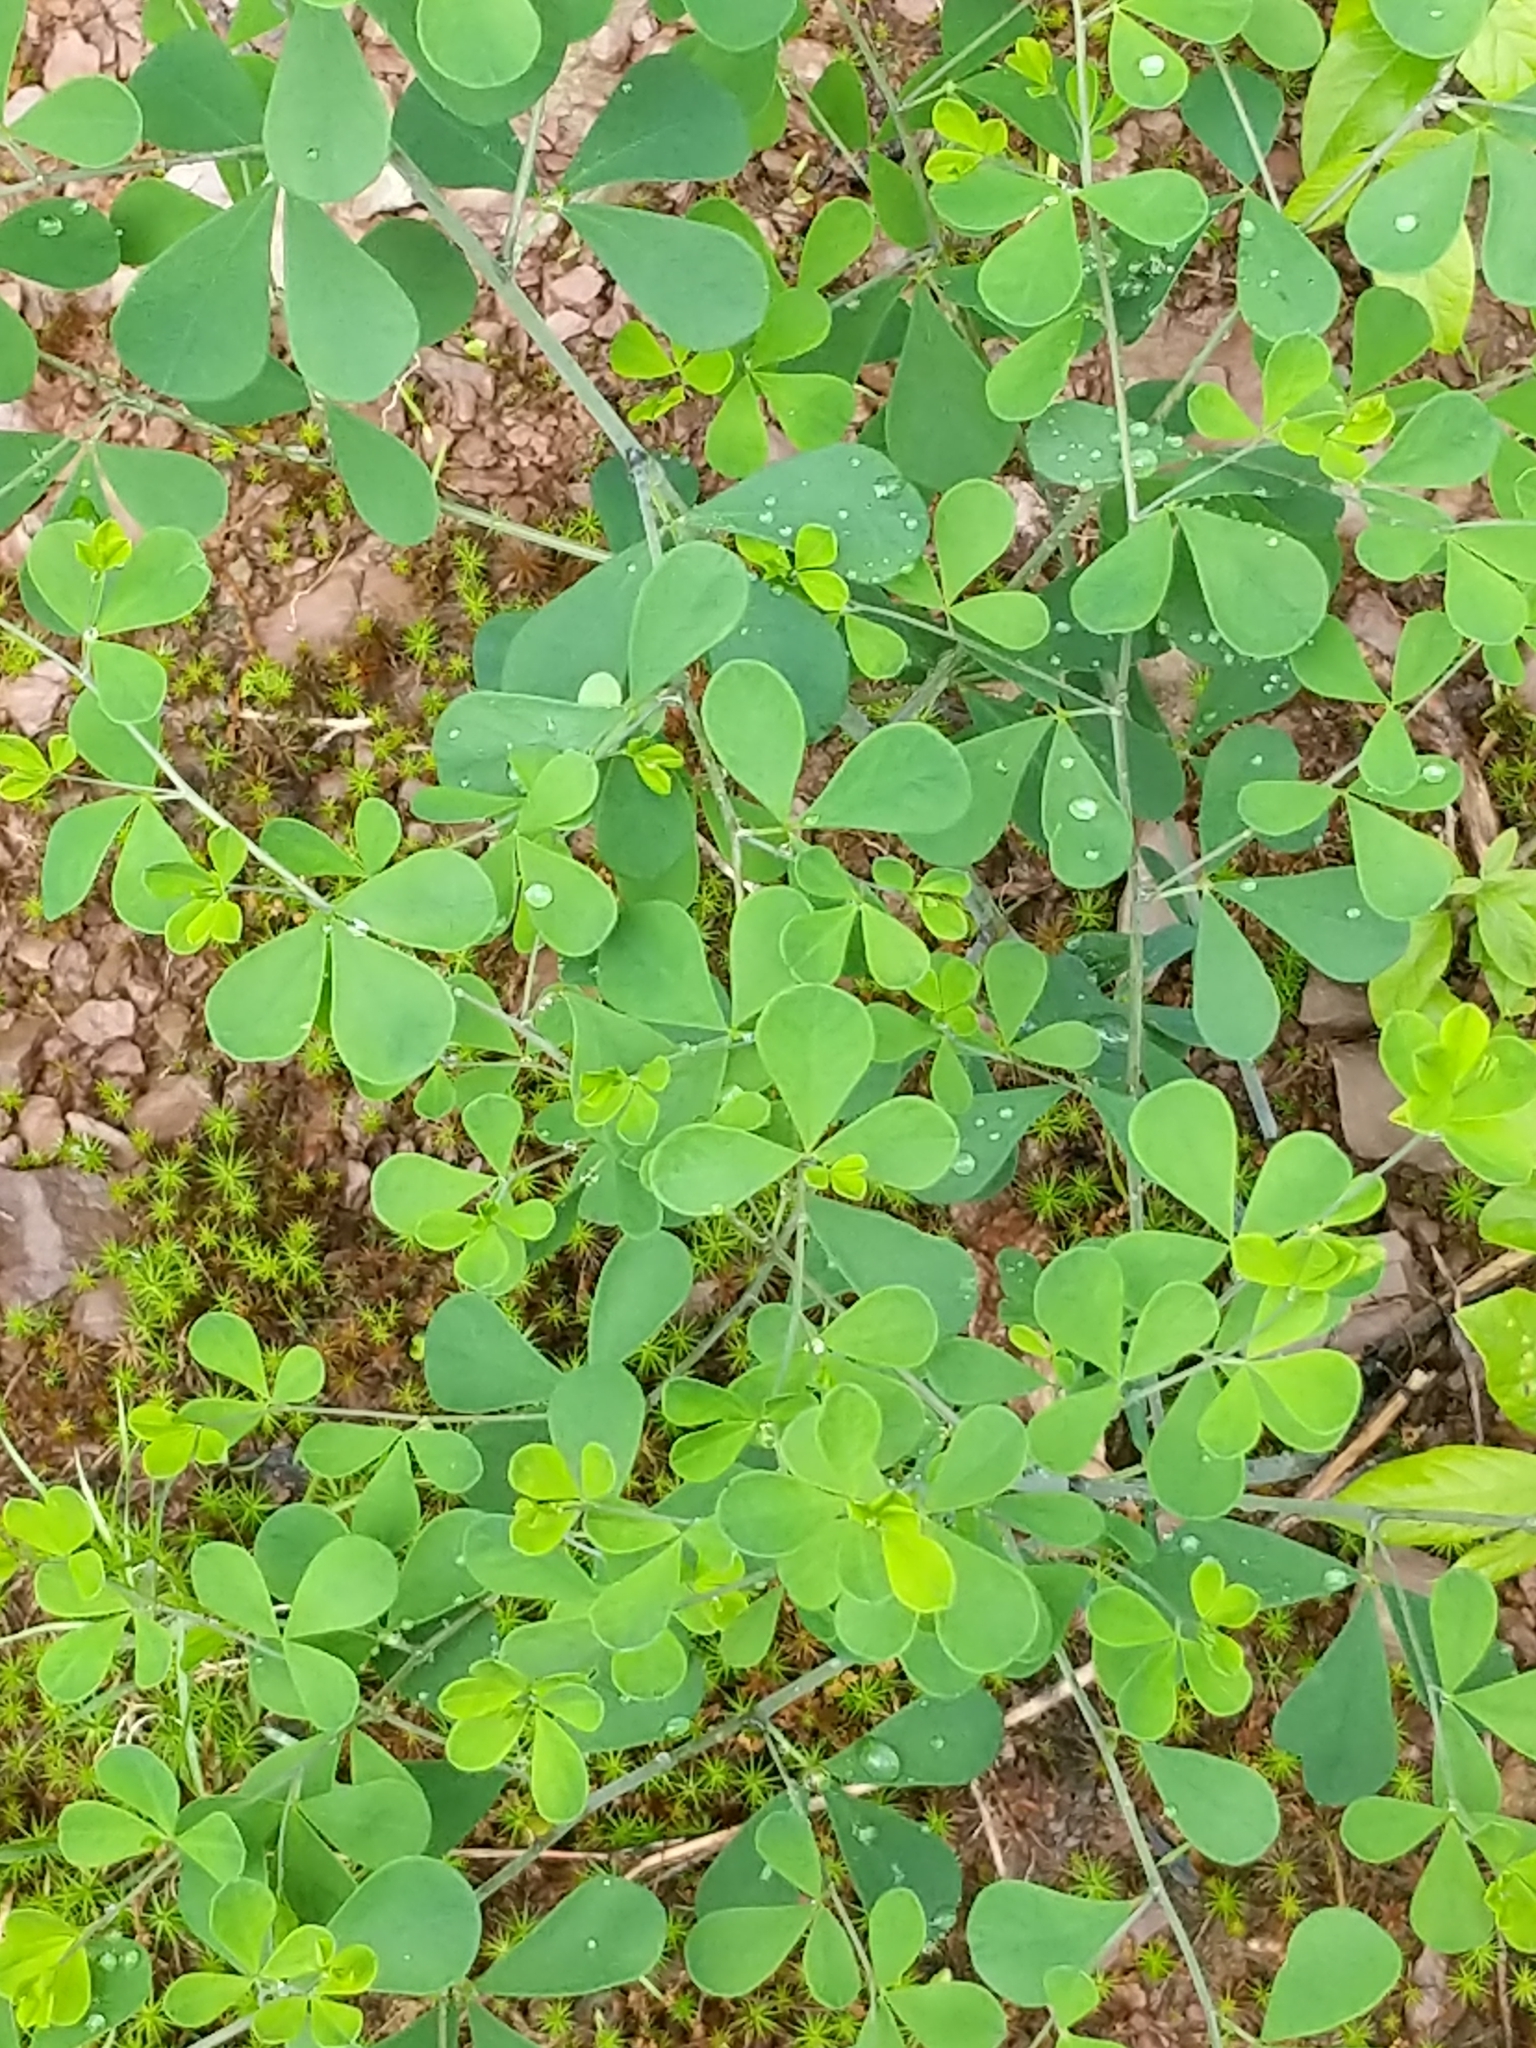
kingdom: Plantae
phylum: Tracheophyta
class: Magnoliopsida
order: Fabales
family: Fabaceae
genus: Baptisia
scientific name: Baptisia tinctoria
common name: Wild indigo
